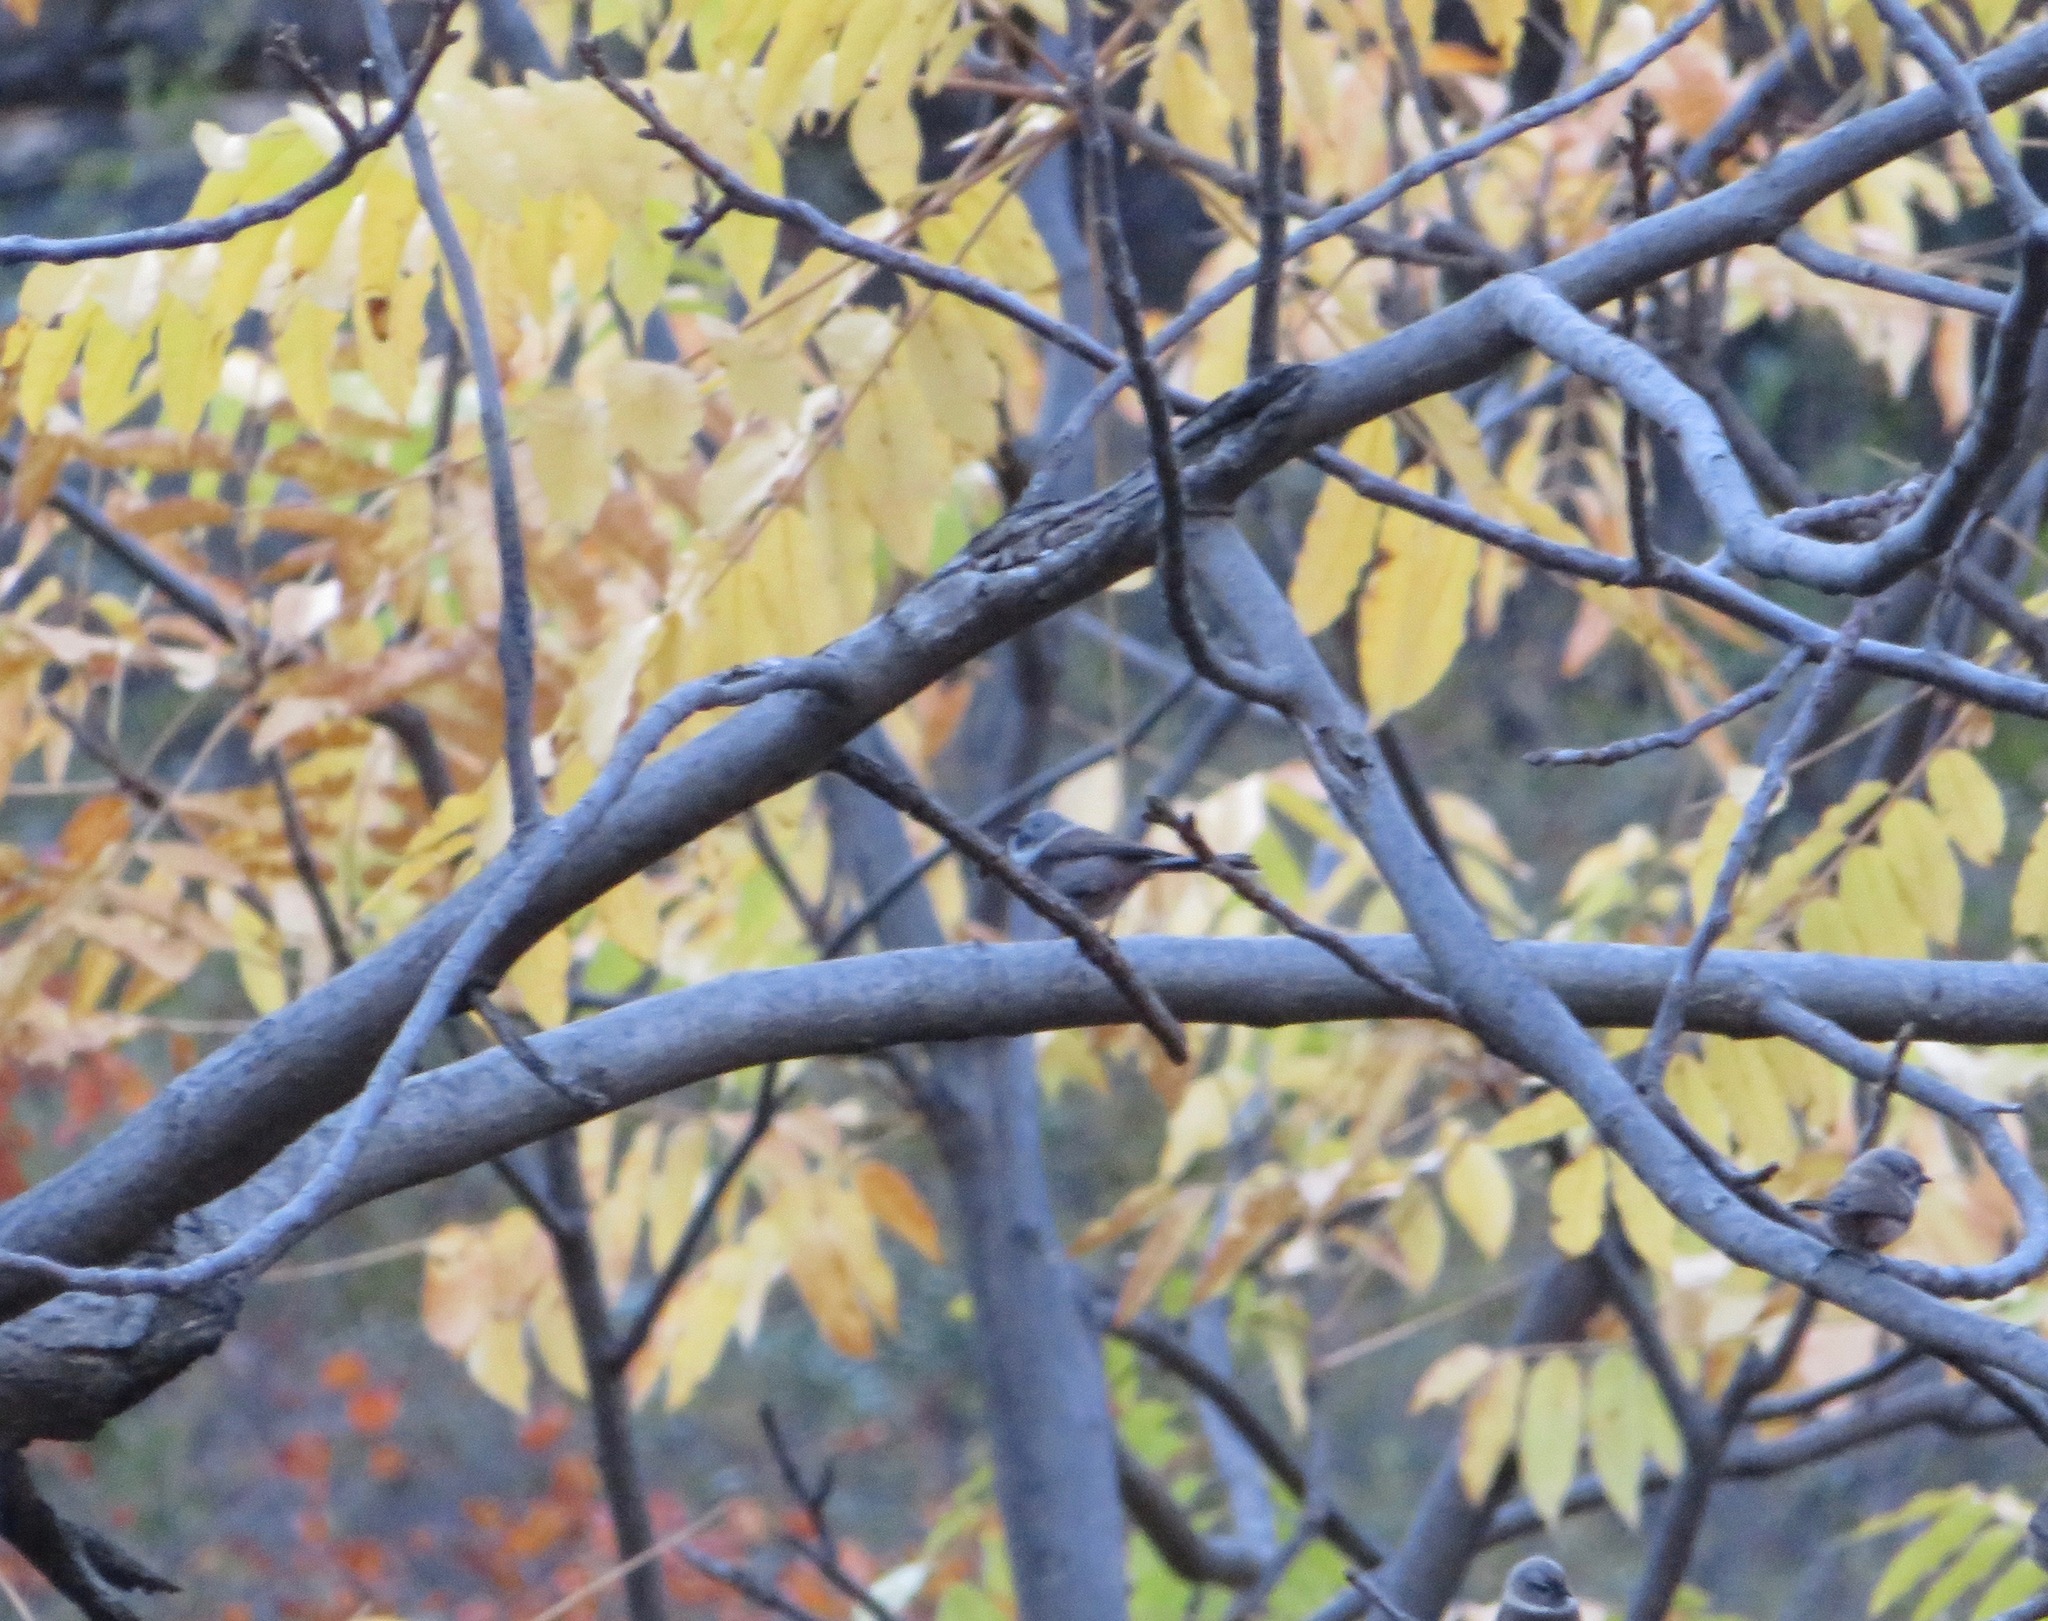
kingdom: Animalia
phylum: Chordata
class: Aves
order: Passeriformes
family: Aegithalidae
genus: Aegithalos
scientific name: Aegithalos fuliginosus
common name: Sooty bushtit
